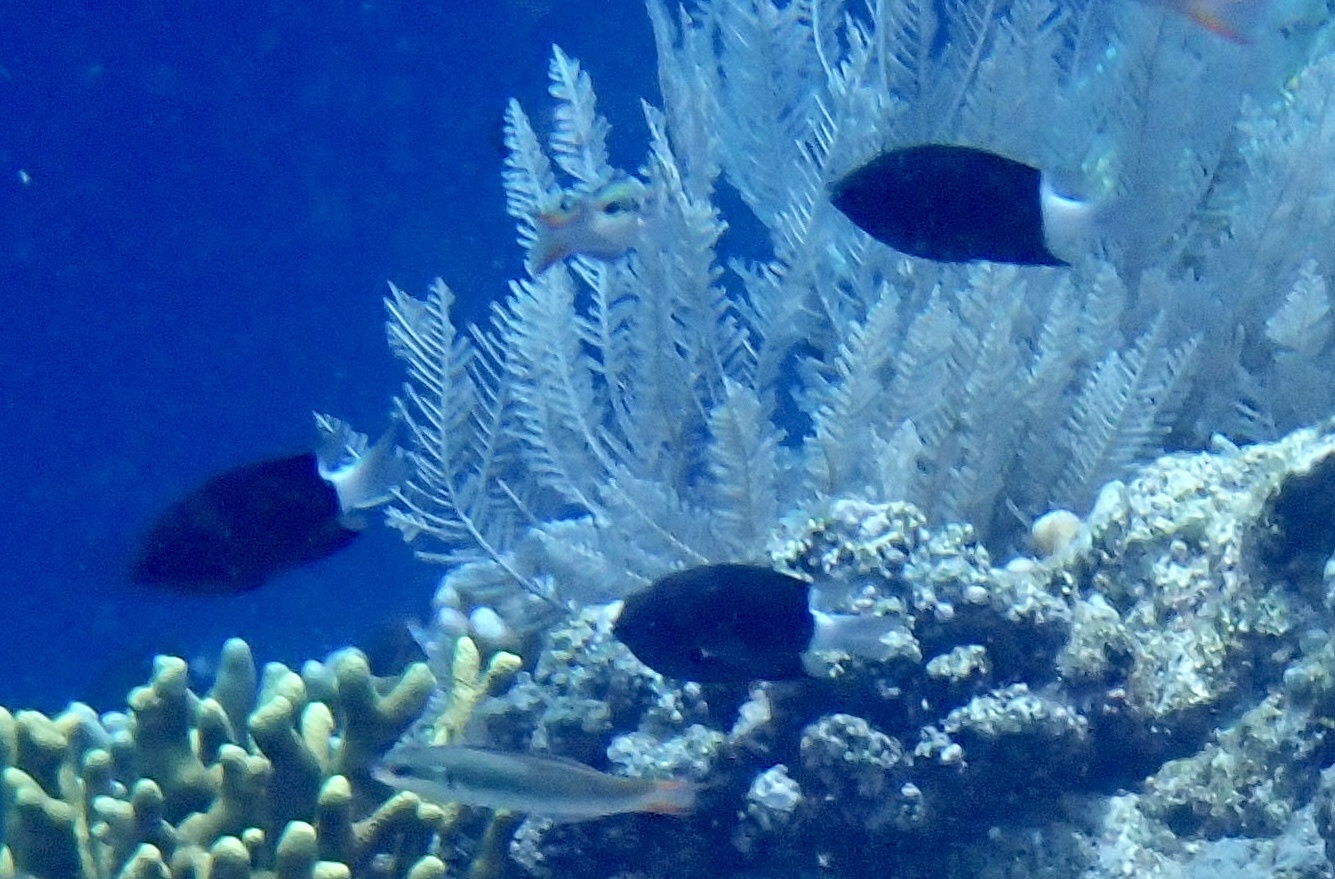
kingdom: Animalia
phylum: Chordata
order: Perciformes
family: Pomacentridae
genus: Pycnochromis
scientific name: Pycnochromis margaritifer
